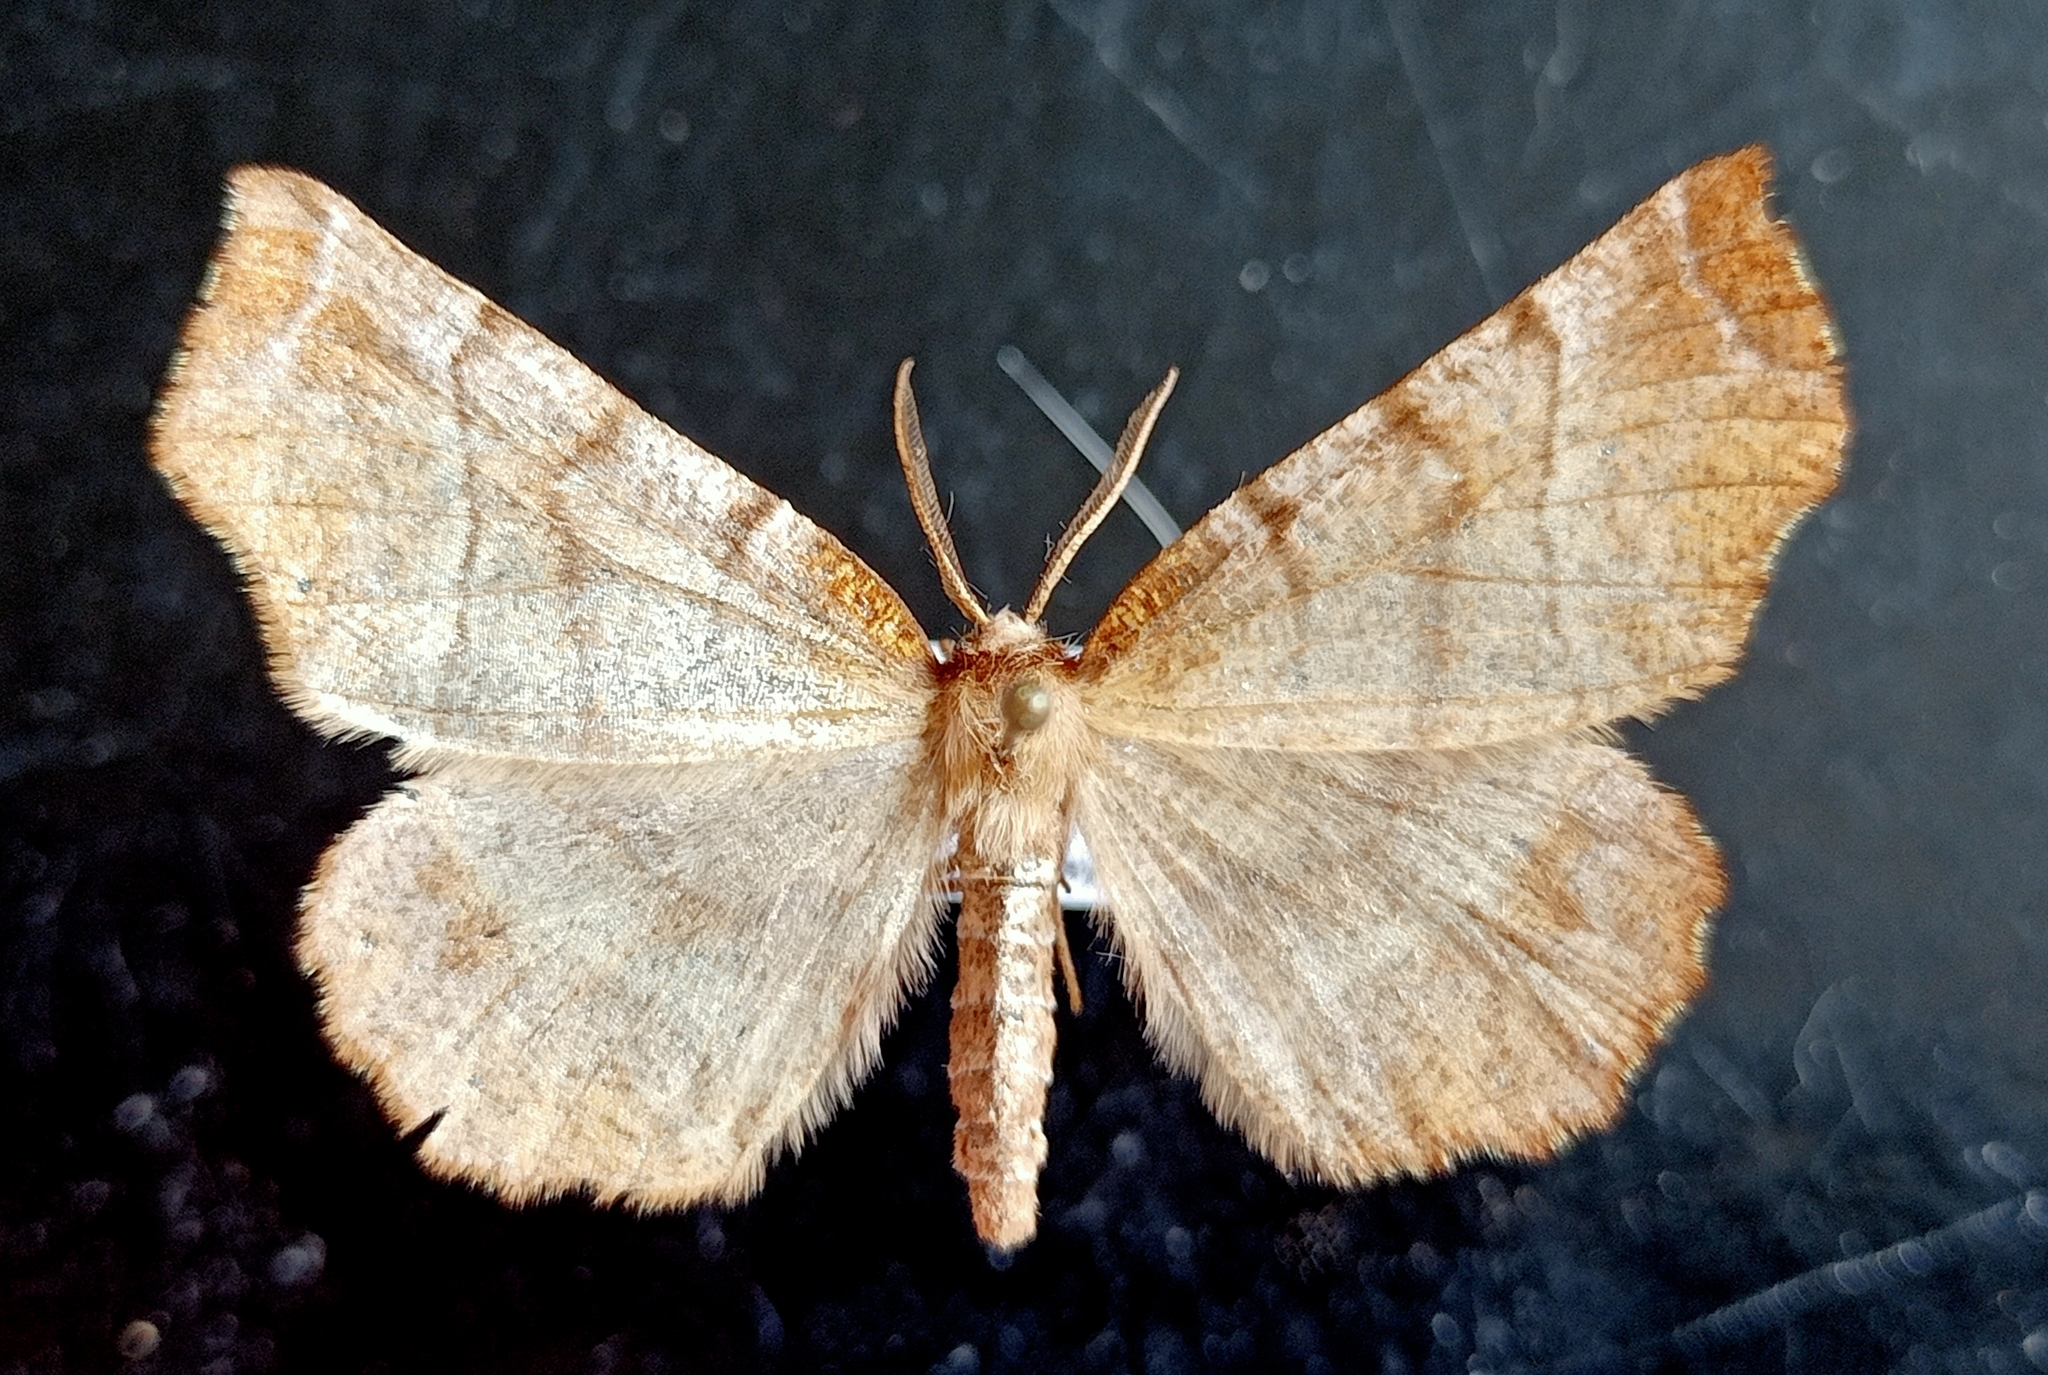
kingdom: Animalia
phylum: Arthropoda
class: Insecta
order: Lepidoptera
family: Geometridae
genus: Selenia
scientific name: Selenia dentaria
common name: Early thorn
